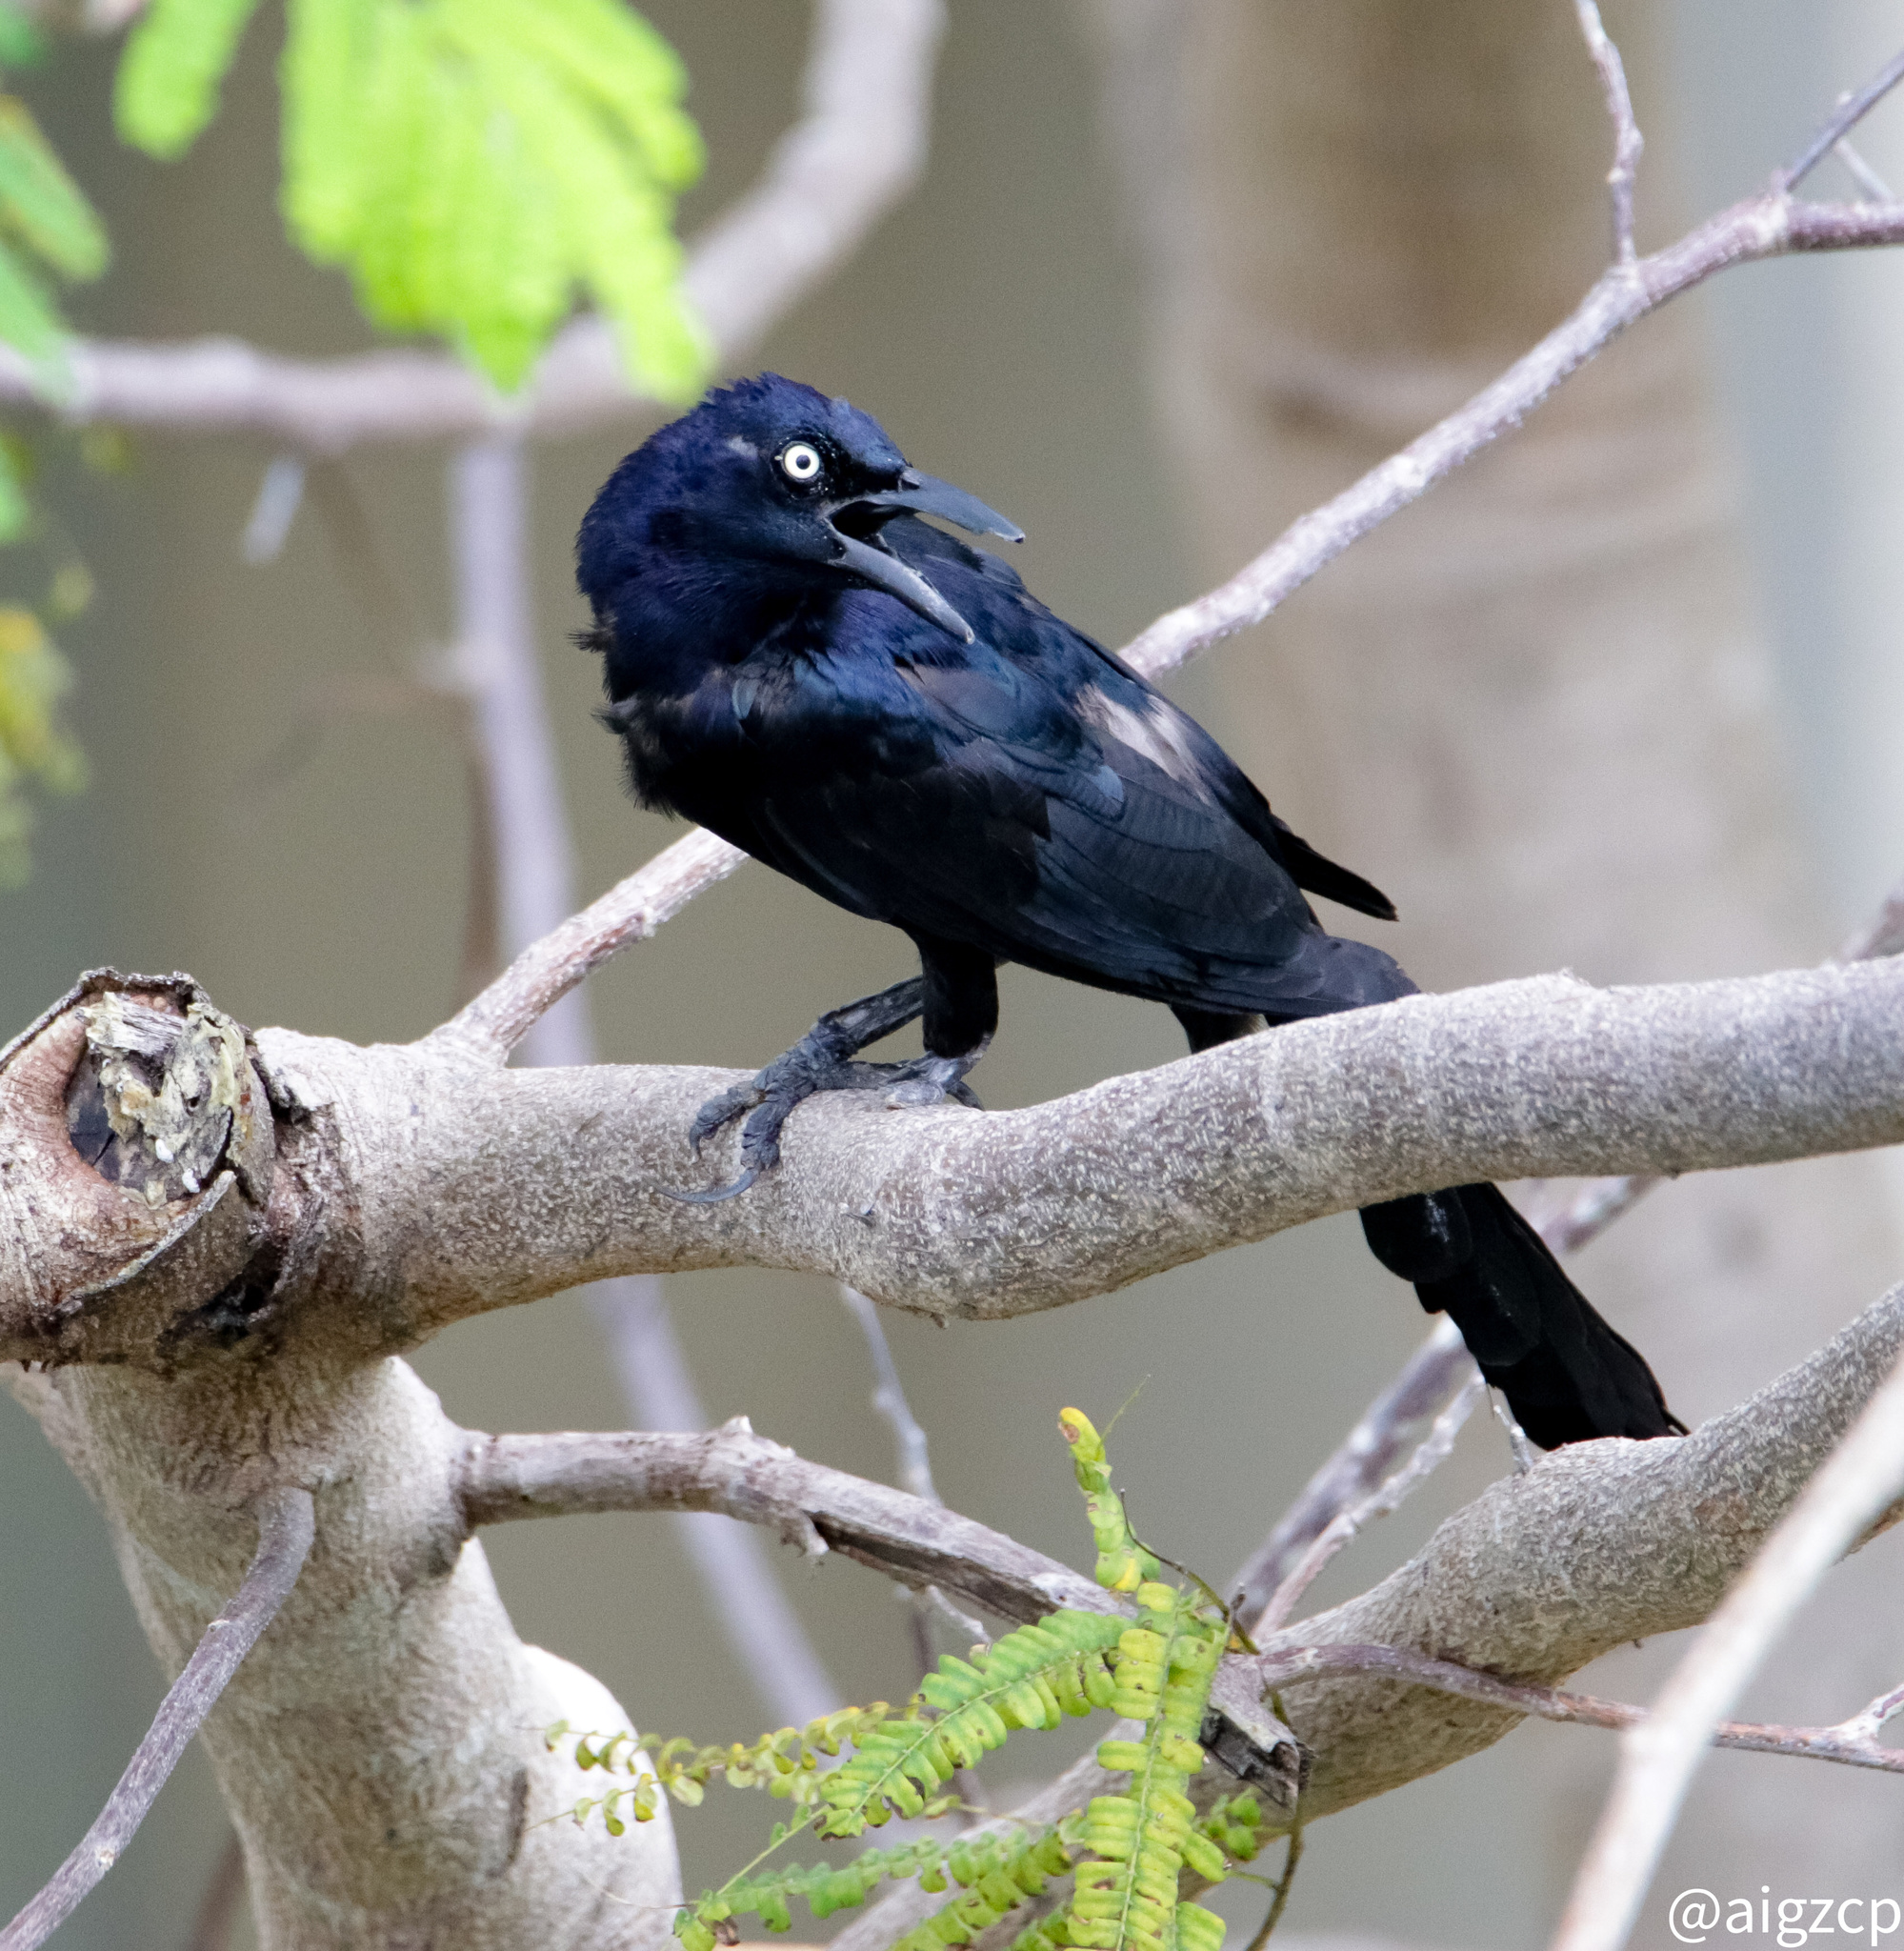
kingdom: Animalia
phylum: Chordata
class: Aves
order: Passeriformes
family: Icteridae
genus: Quiscalus
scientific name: Quiscalus mexicanus
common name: Great-tailed grackle
